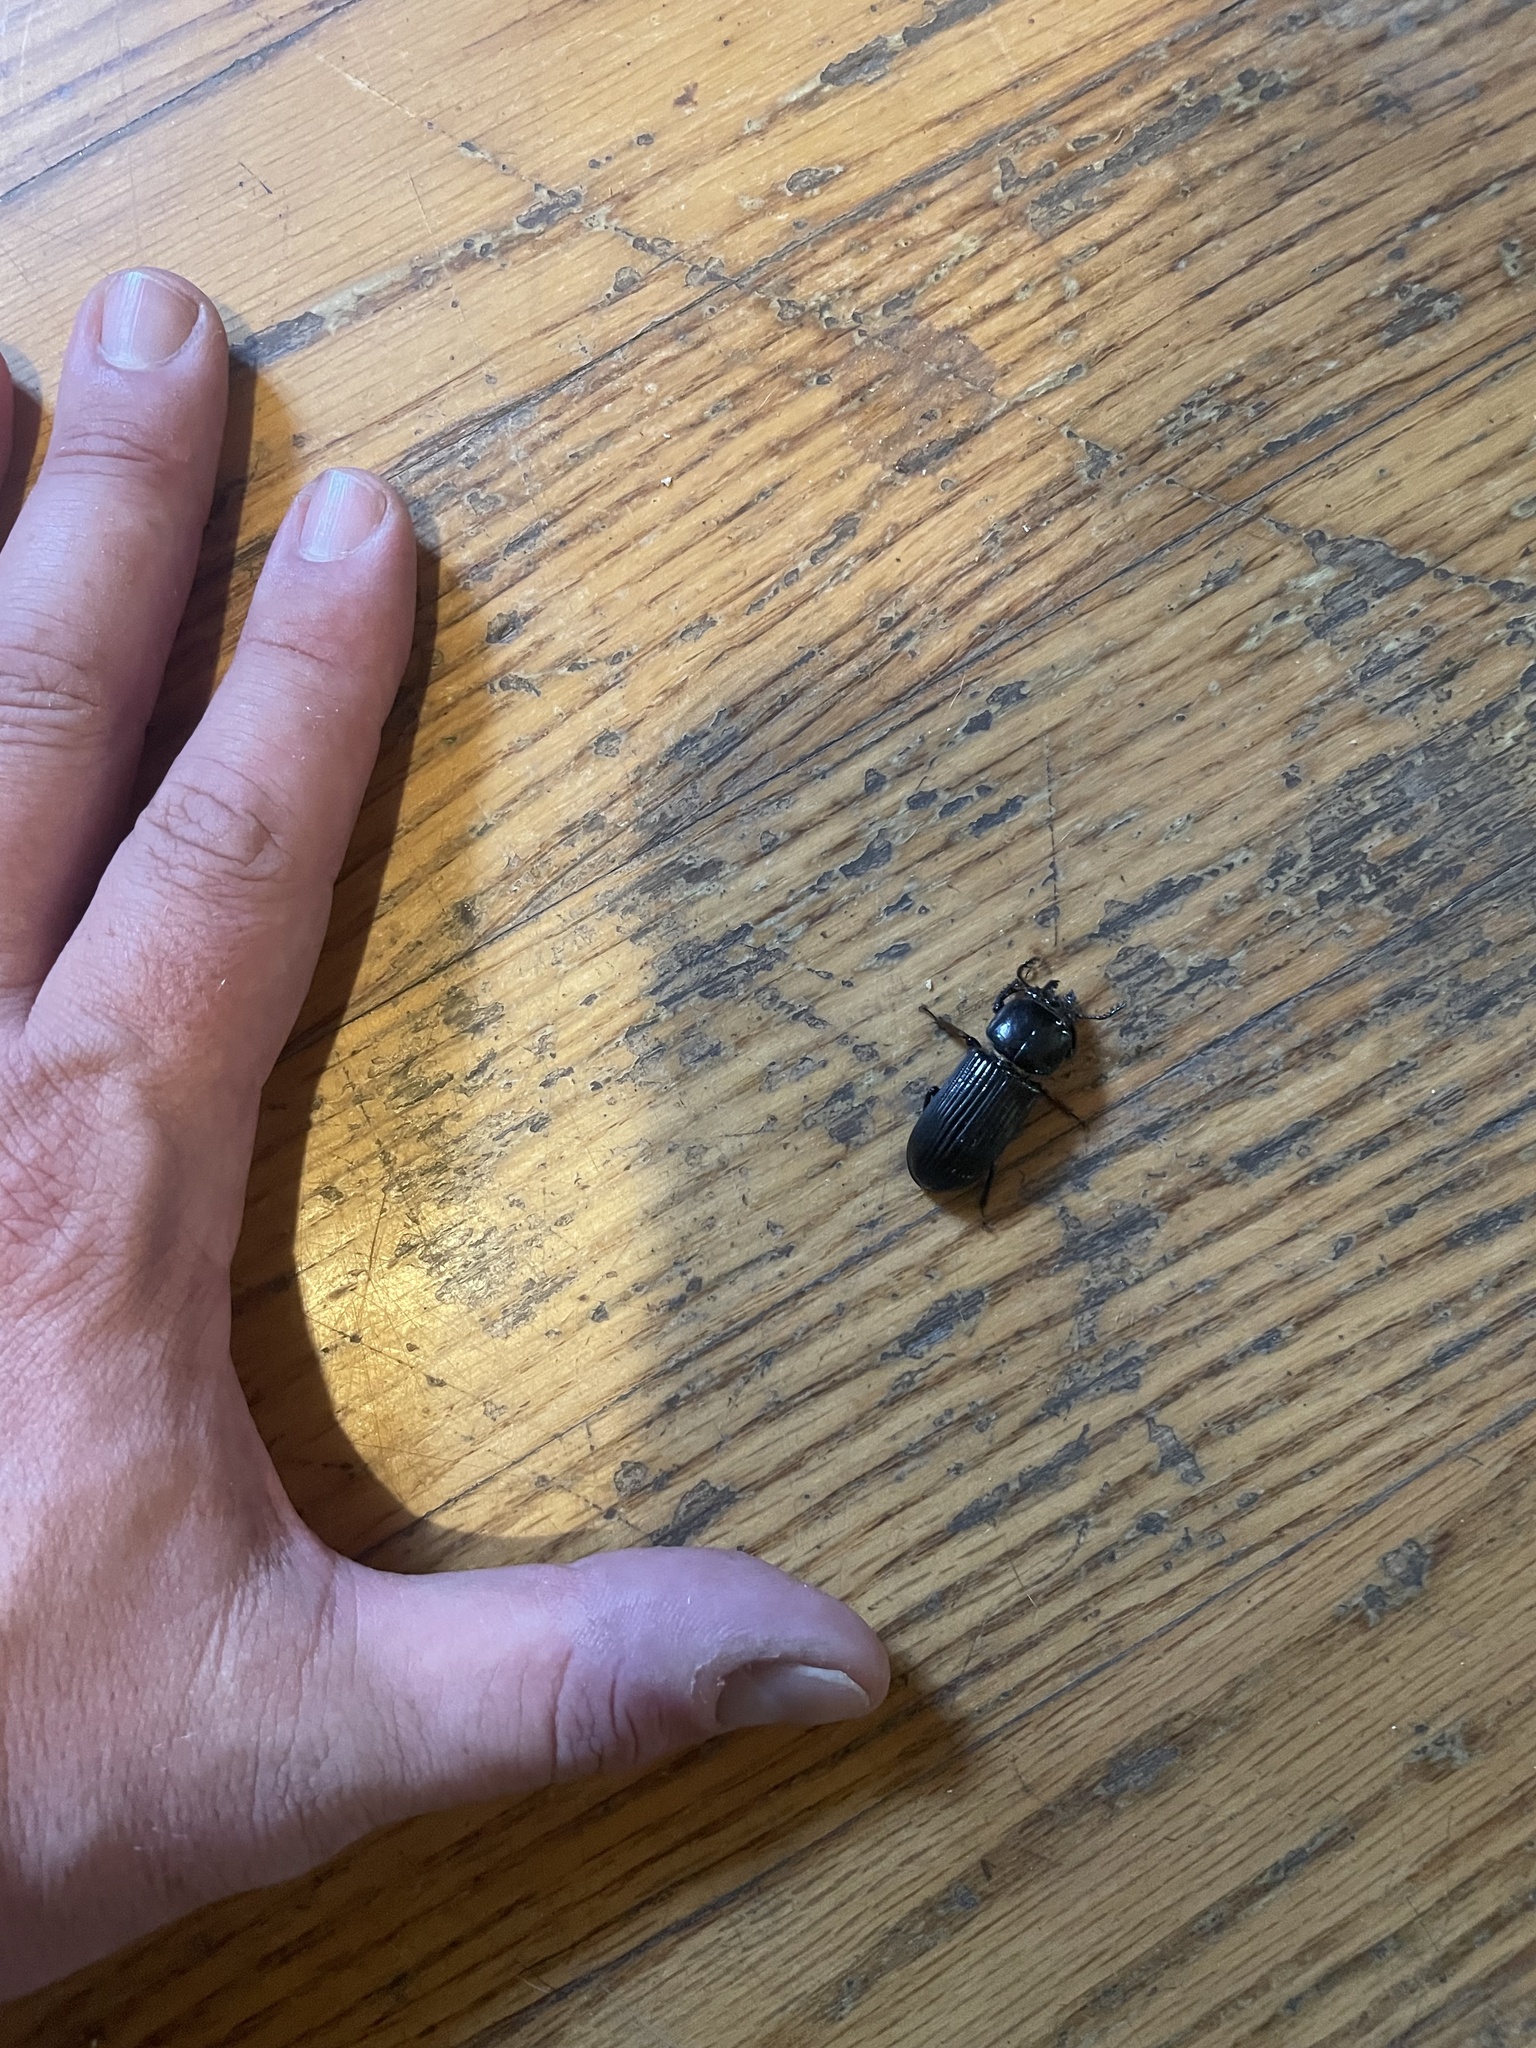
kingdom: Animalia
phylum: Arthropoda
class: Insecta
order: Coleoptera
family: Passalidae
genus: Odontotaenius
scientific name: Odontotaenius disjunctus
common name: Patent leather beetle
